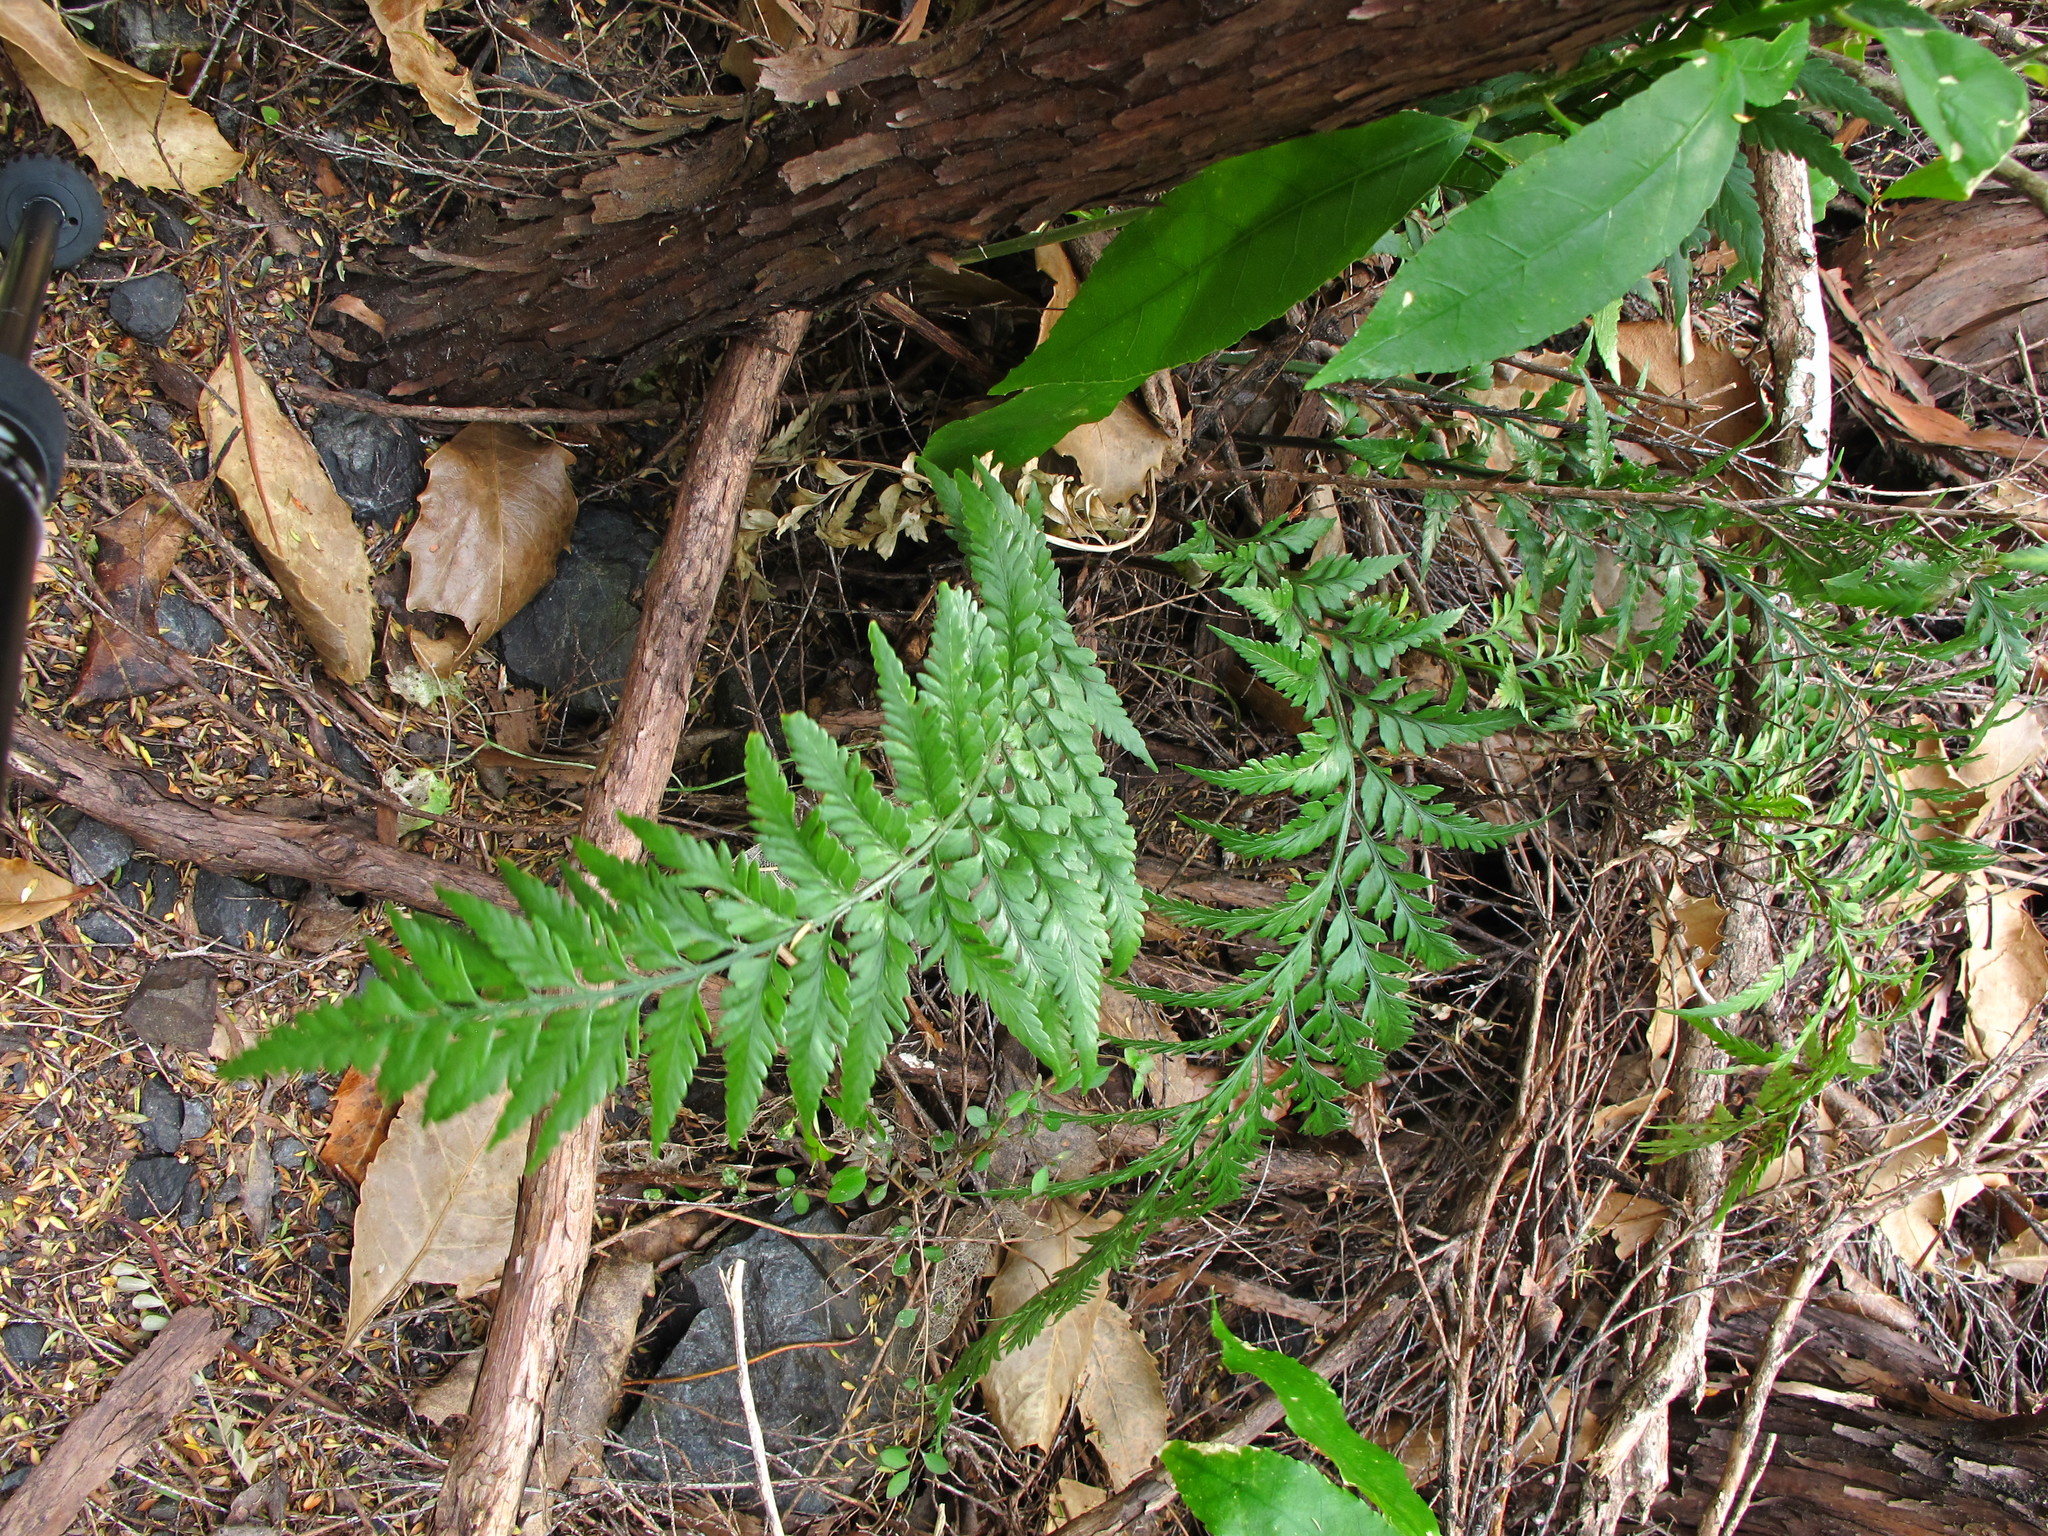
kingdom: Plantae
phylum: Tracheophyta
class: Polypodiopsida
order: Polypodiales
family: Aspleniaceae
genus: Asplenium
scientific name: Asplenium appendiculatum
